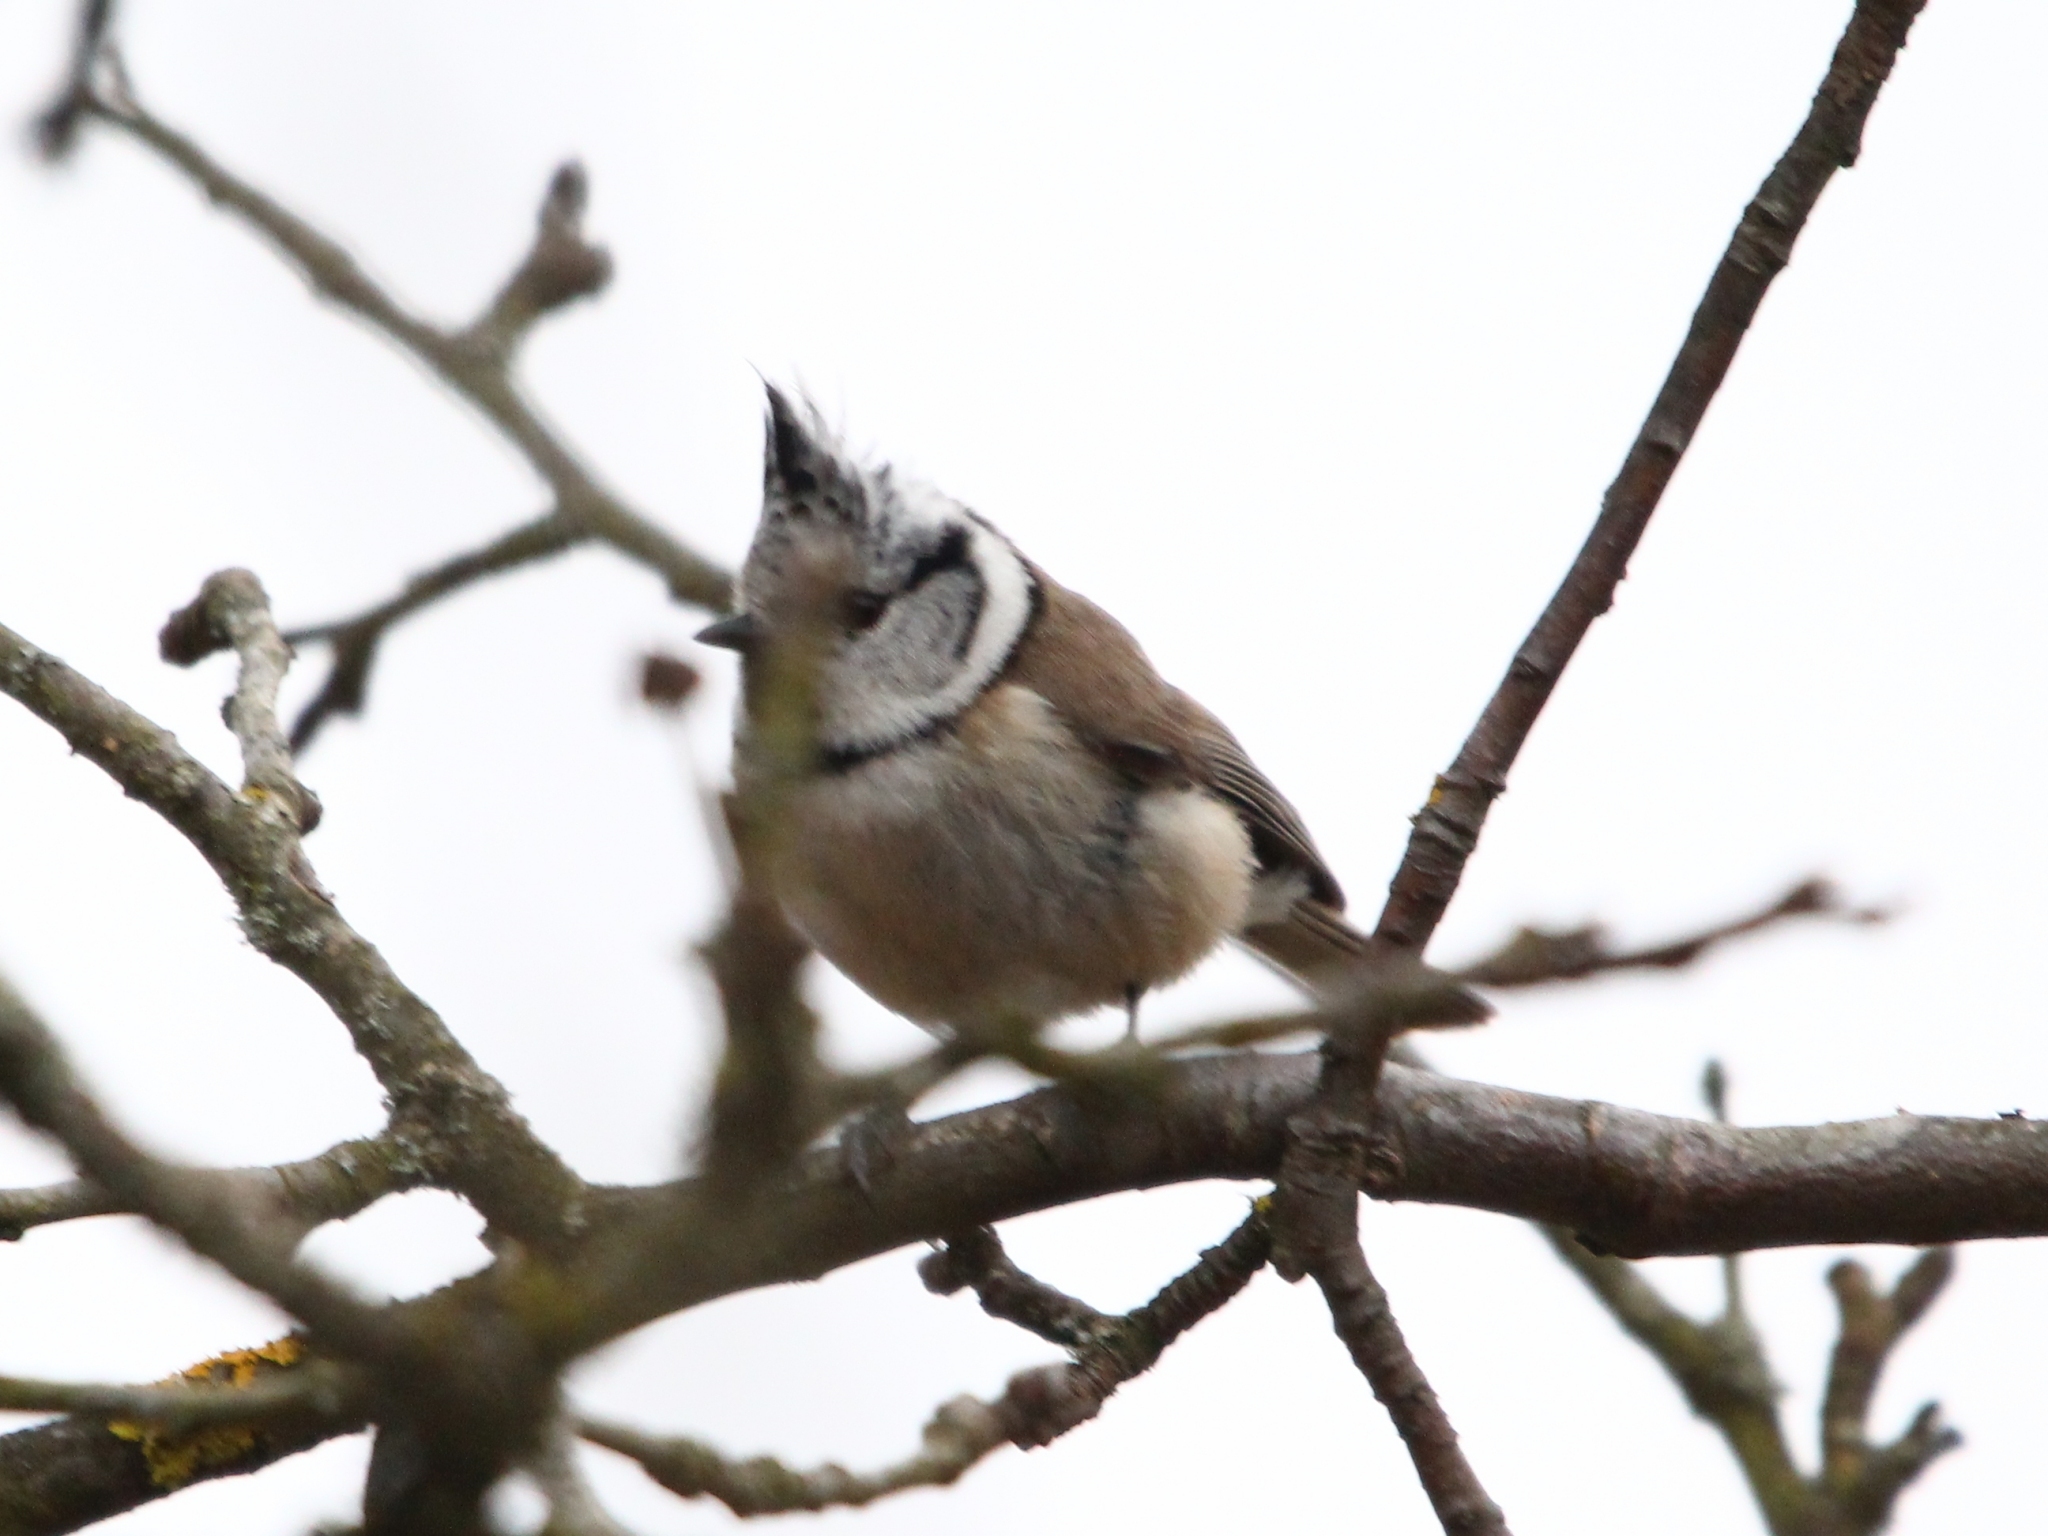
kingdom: Animalia
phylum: Chordata
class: Aves
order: Passeriformes
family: Paridae
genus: Lophophanes
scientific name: Lophophanes cristatus
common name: European crested tit
